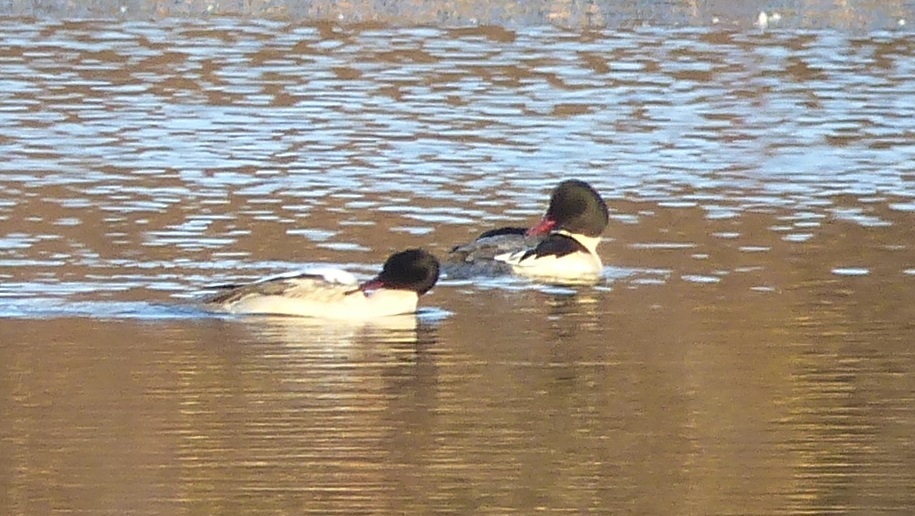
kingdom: Animalia
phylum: Chordata
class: Aves
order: Anseriformes
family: Anatidae
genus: Mergus
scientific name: Mergus merganser
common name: Common merganser
